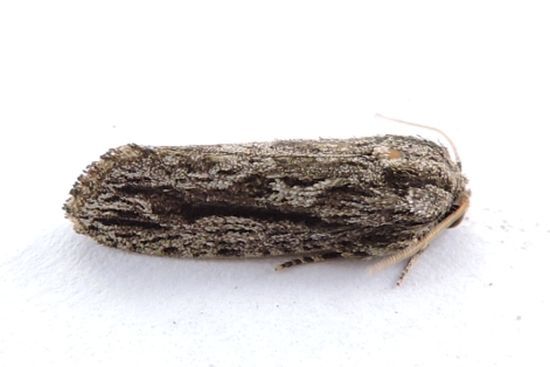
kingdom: Animalia
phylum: Arthropoda
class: Insecta
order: Lepidoptera
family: Tineidae
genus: Acrolophus
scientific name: Acrolophus furcatus
